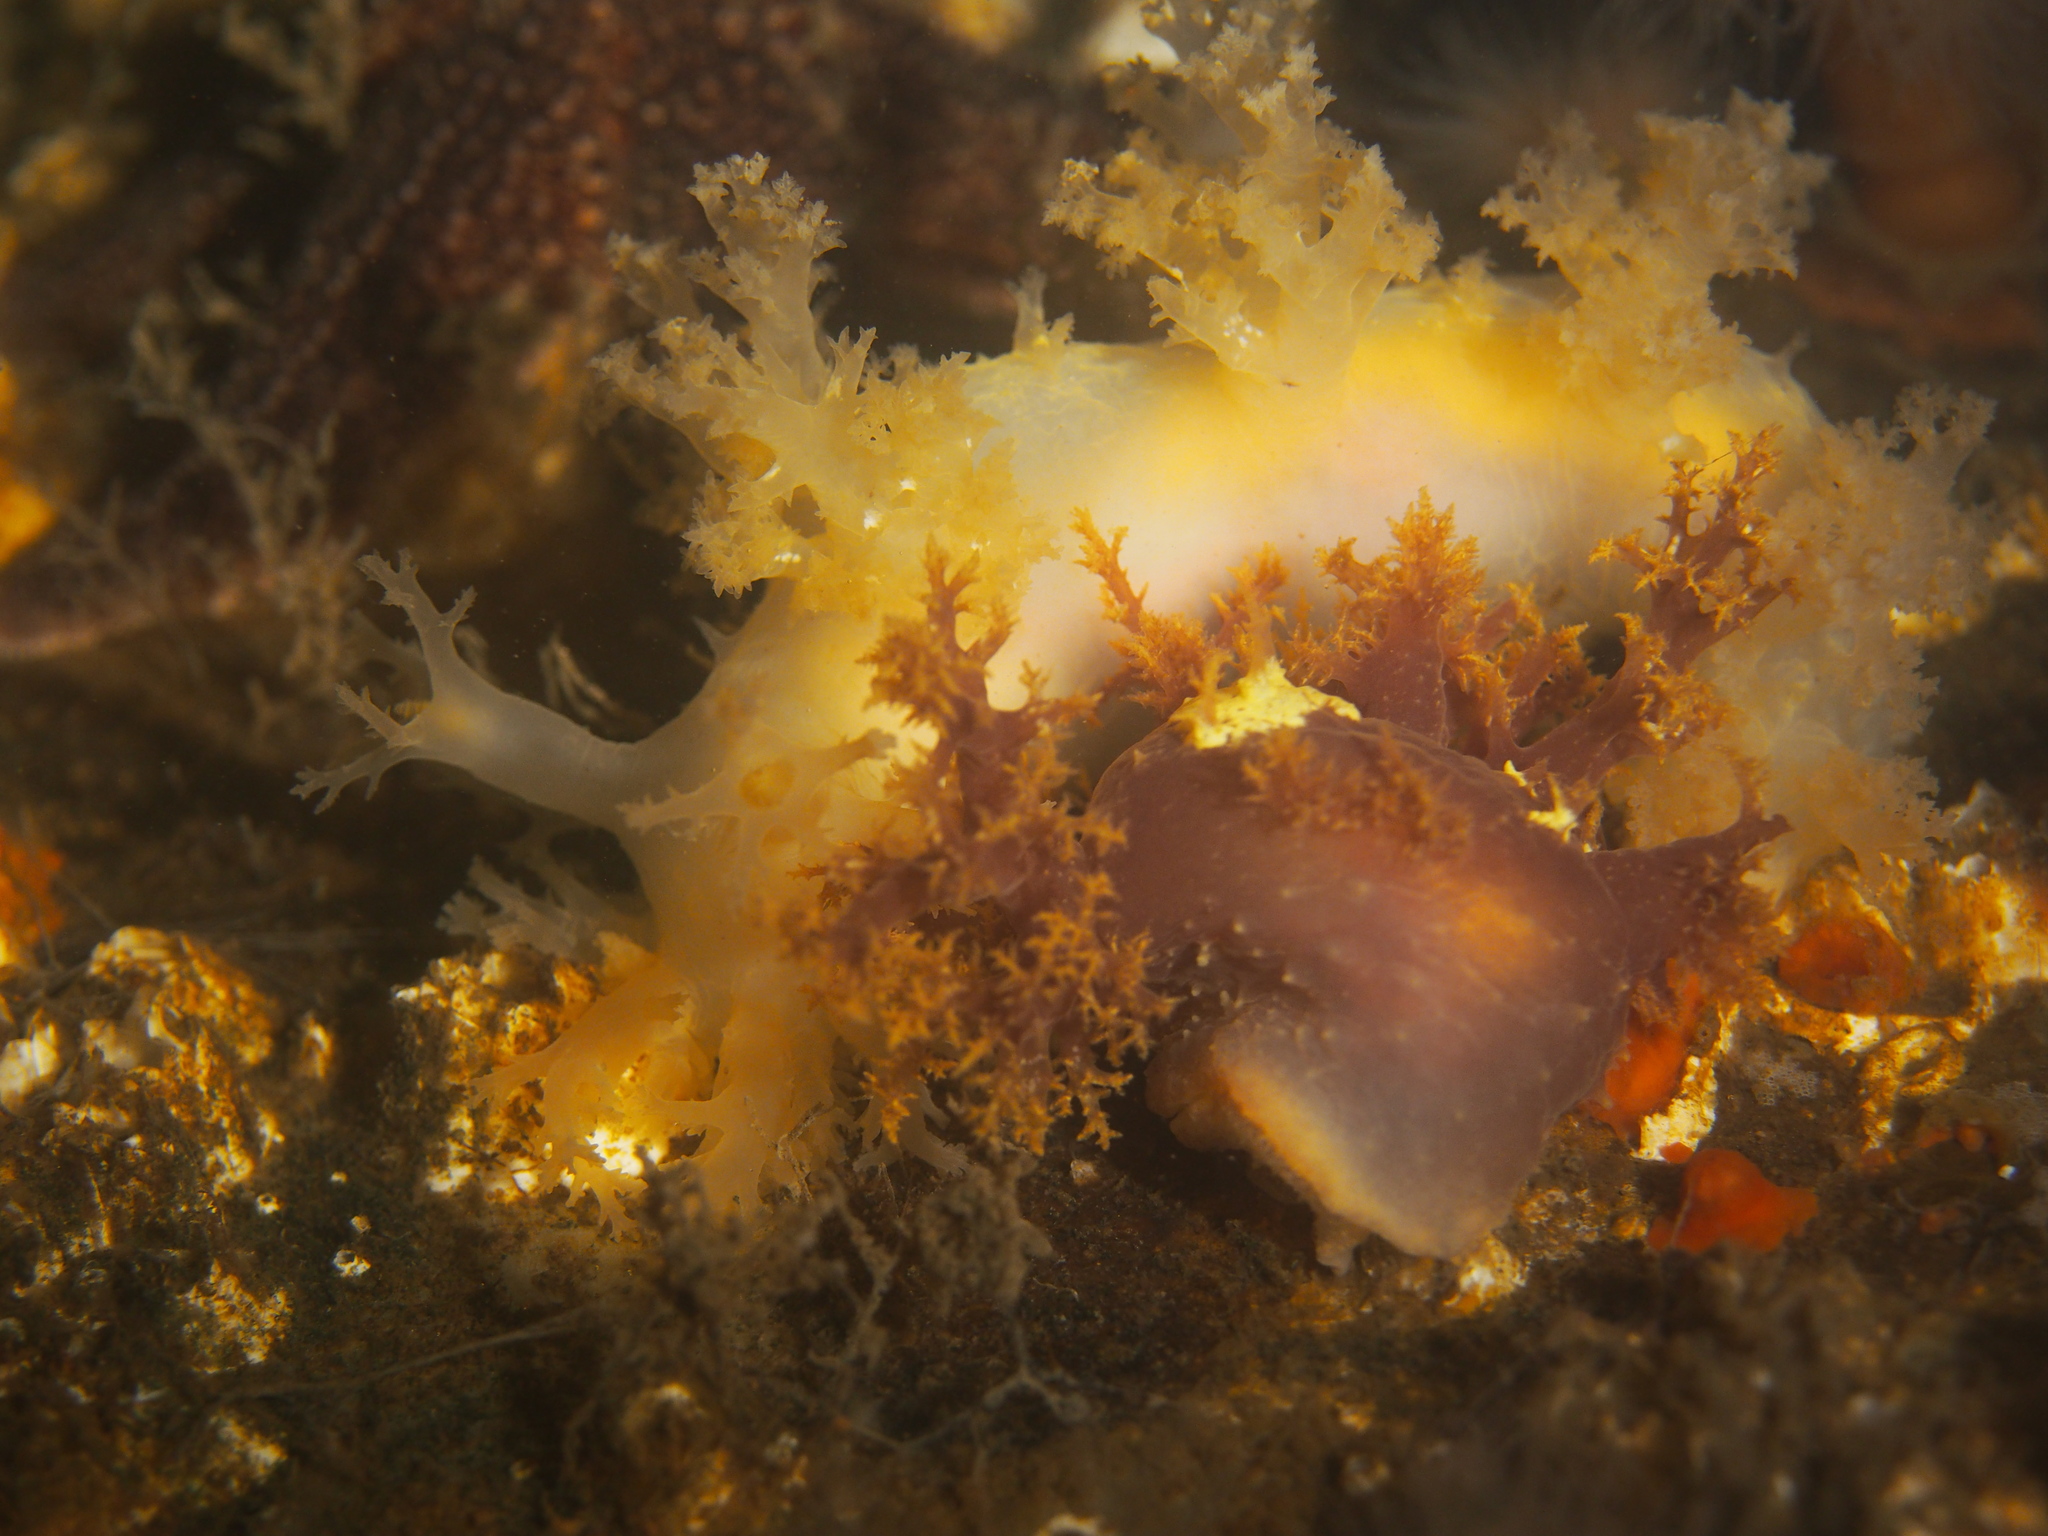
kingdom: Animalia
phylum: Mollusca
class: Gastropoda
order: Nudibranchia
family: Dendronotidae
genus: Dendronotus
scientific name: Dendronotus lacteus
